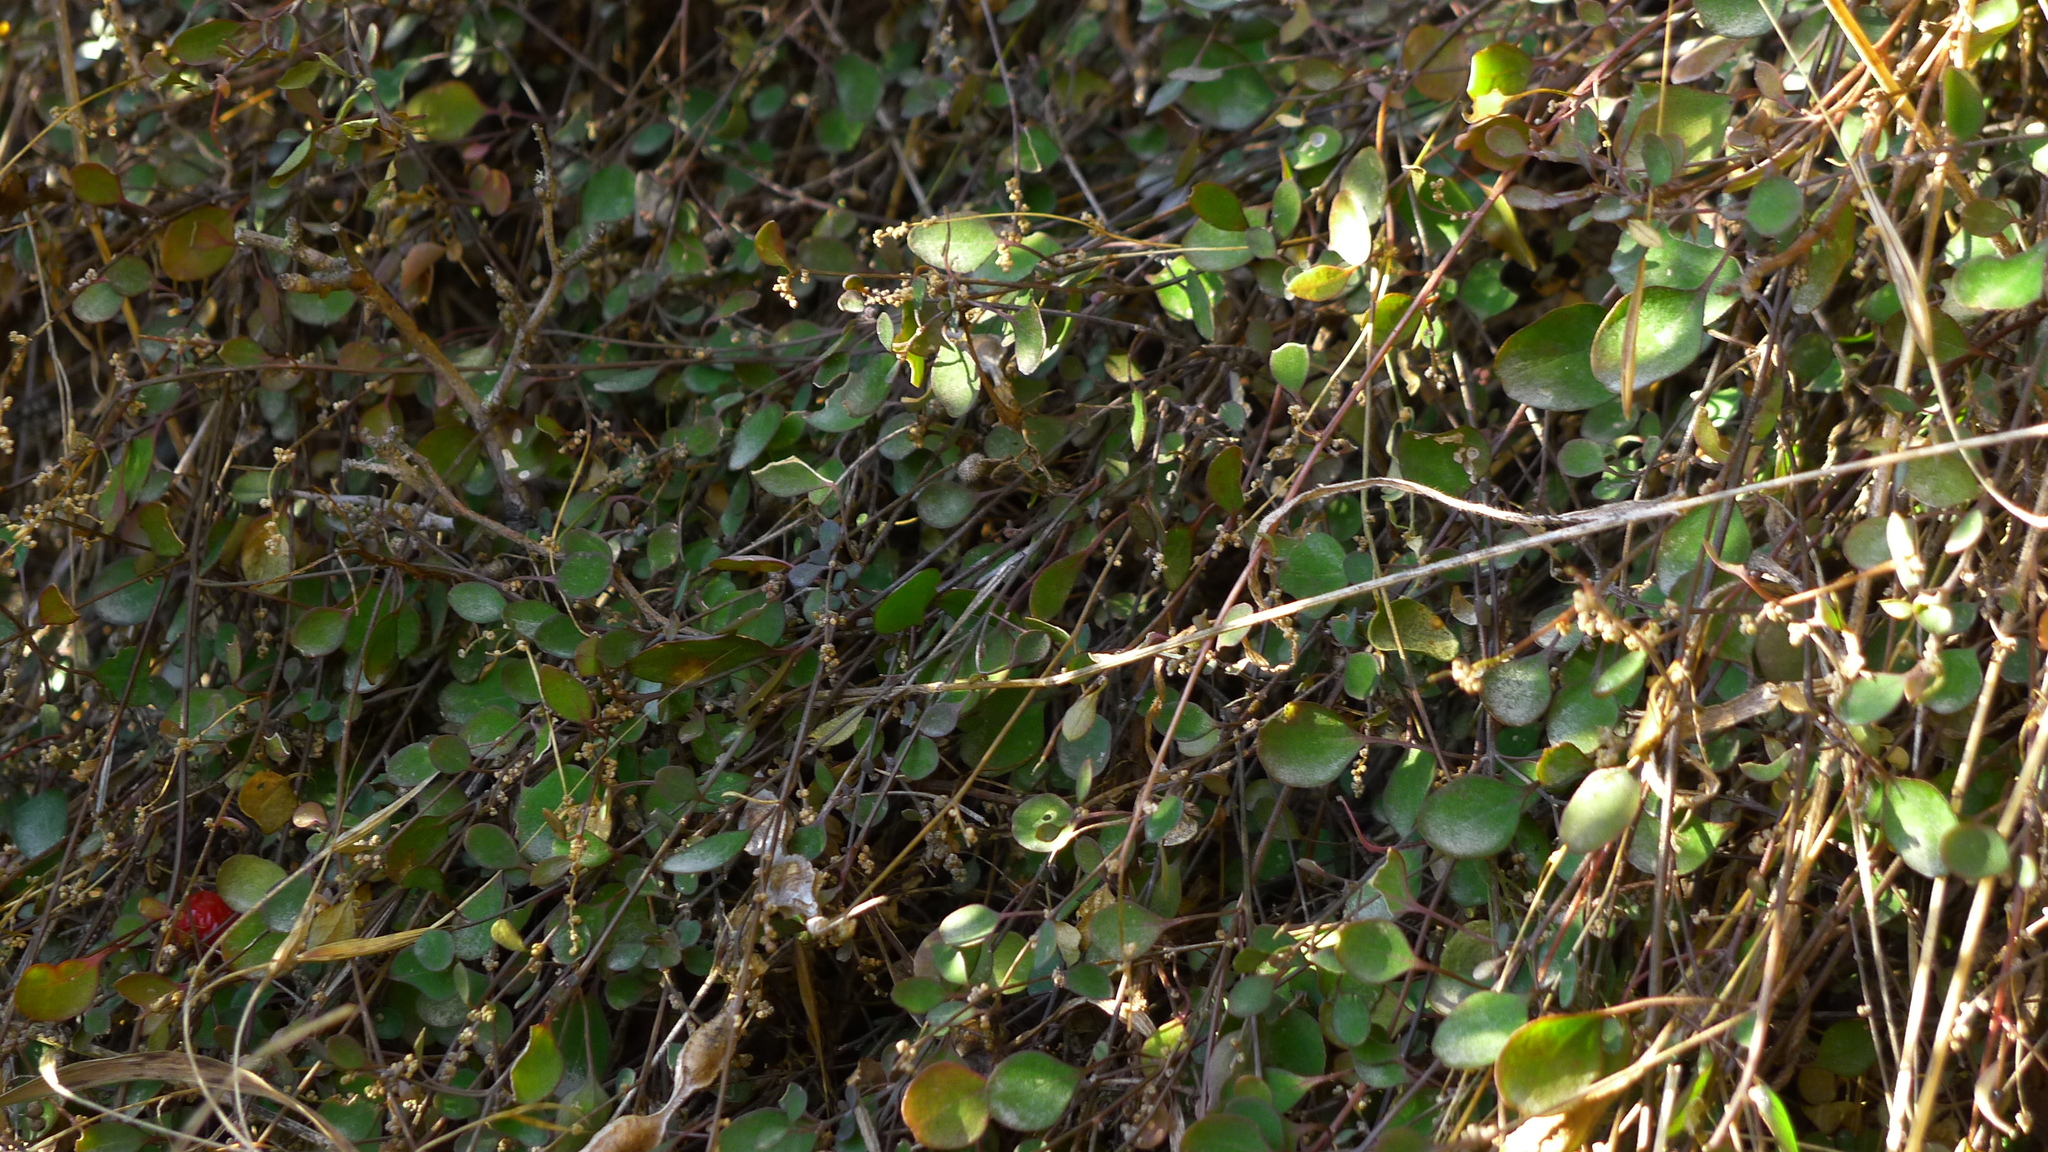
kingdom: Plantae
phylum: Tracheophyta
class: Magnoliopsida
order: Caryophyllales
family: Amaranthaceae
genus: Chenopodium
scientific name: Chenopodium allanii
